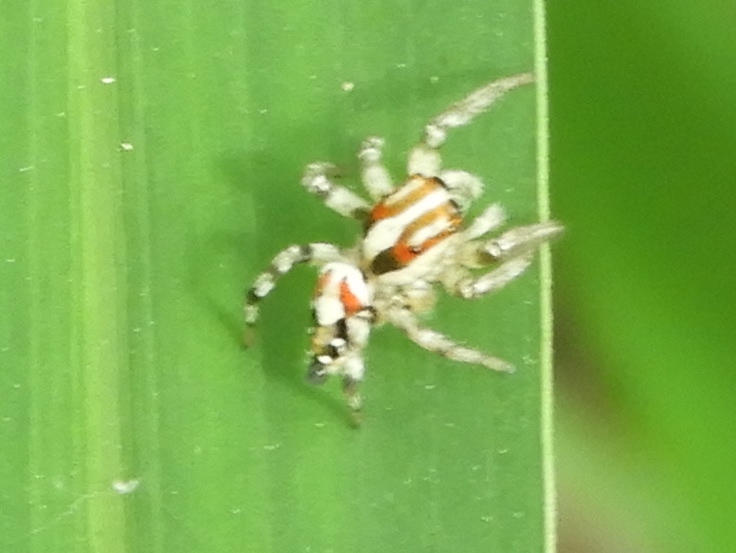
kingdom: Animalia
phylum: Arthropoda
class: Arachnida
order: Araneae
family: Salticidae
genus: Nycerella
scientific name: Nycerella delecta
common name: Jumping spiders
